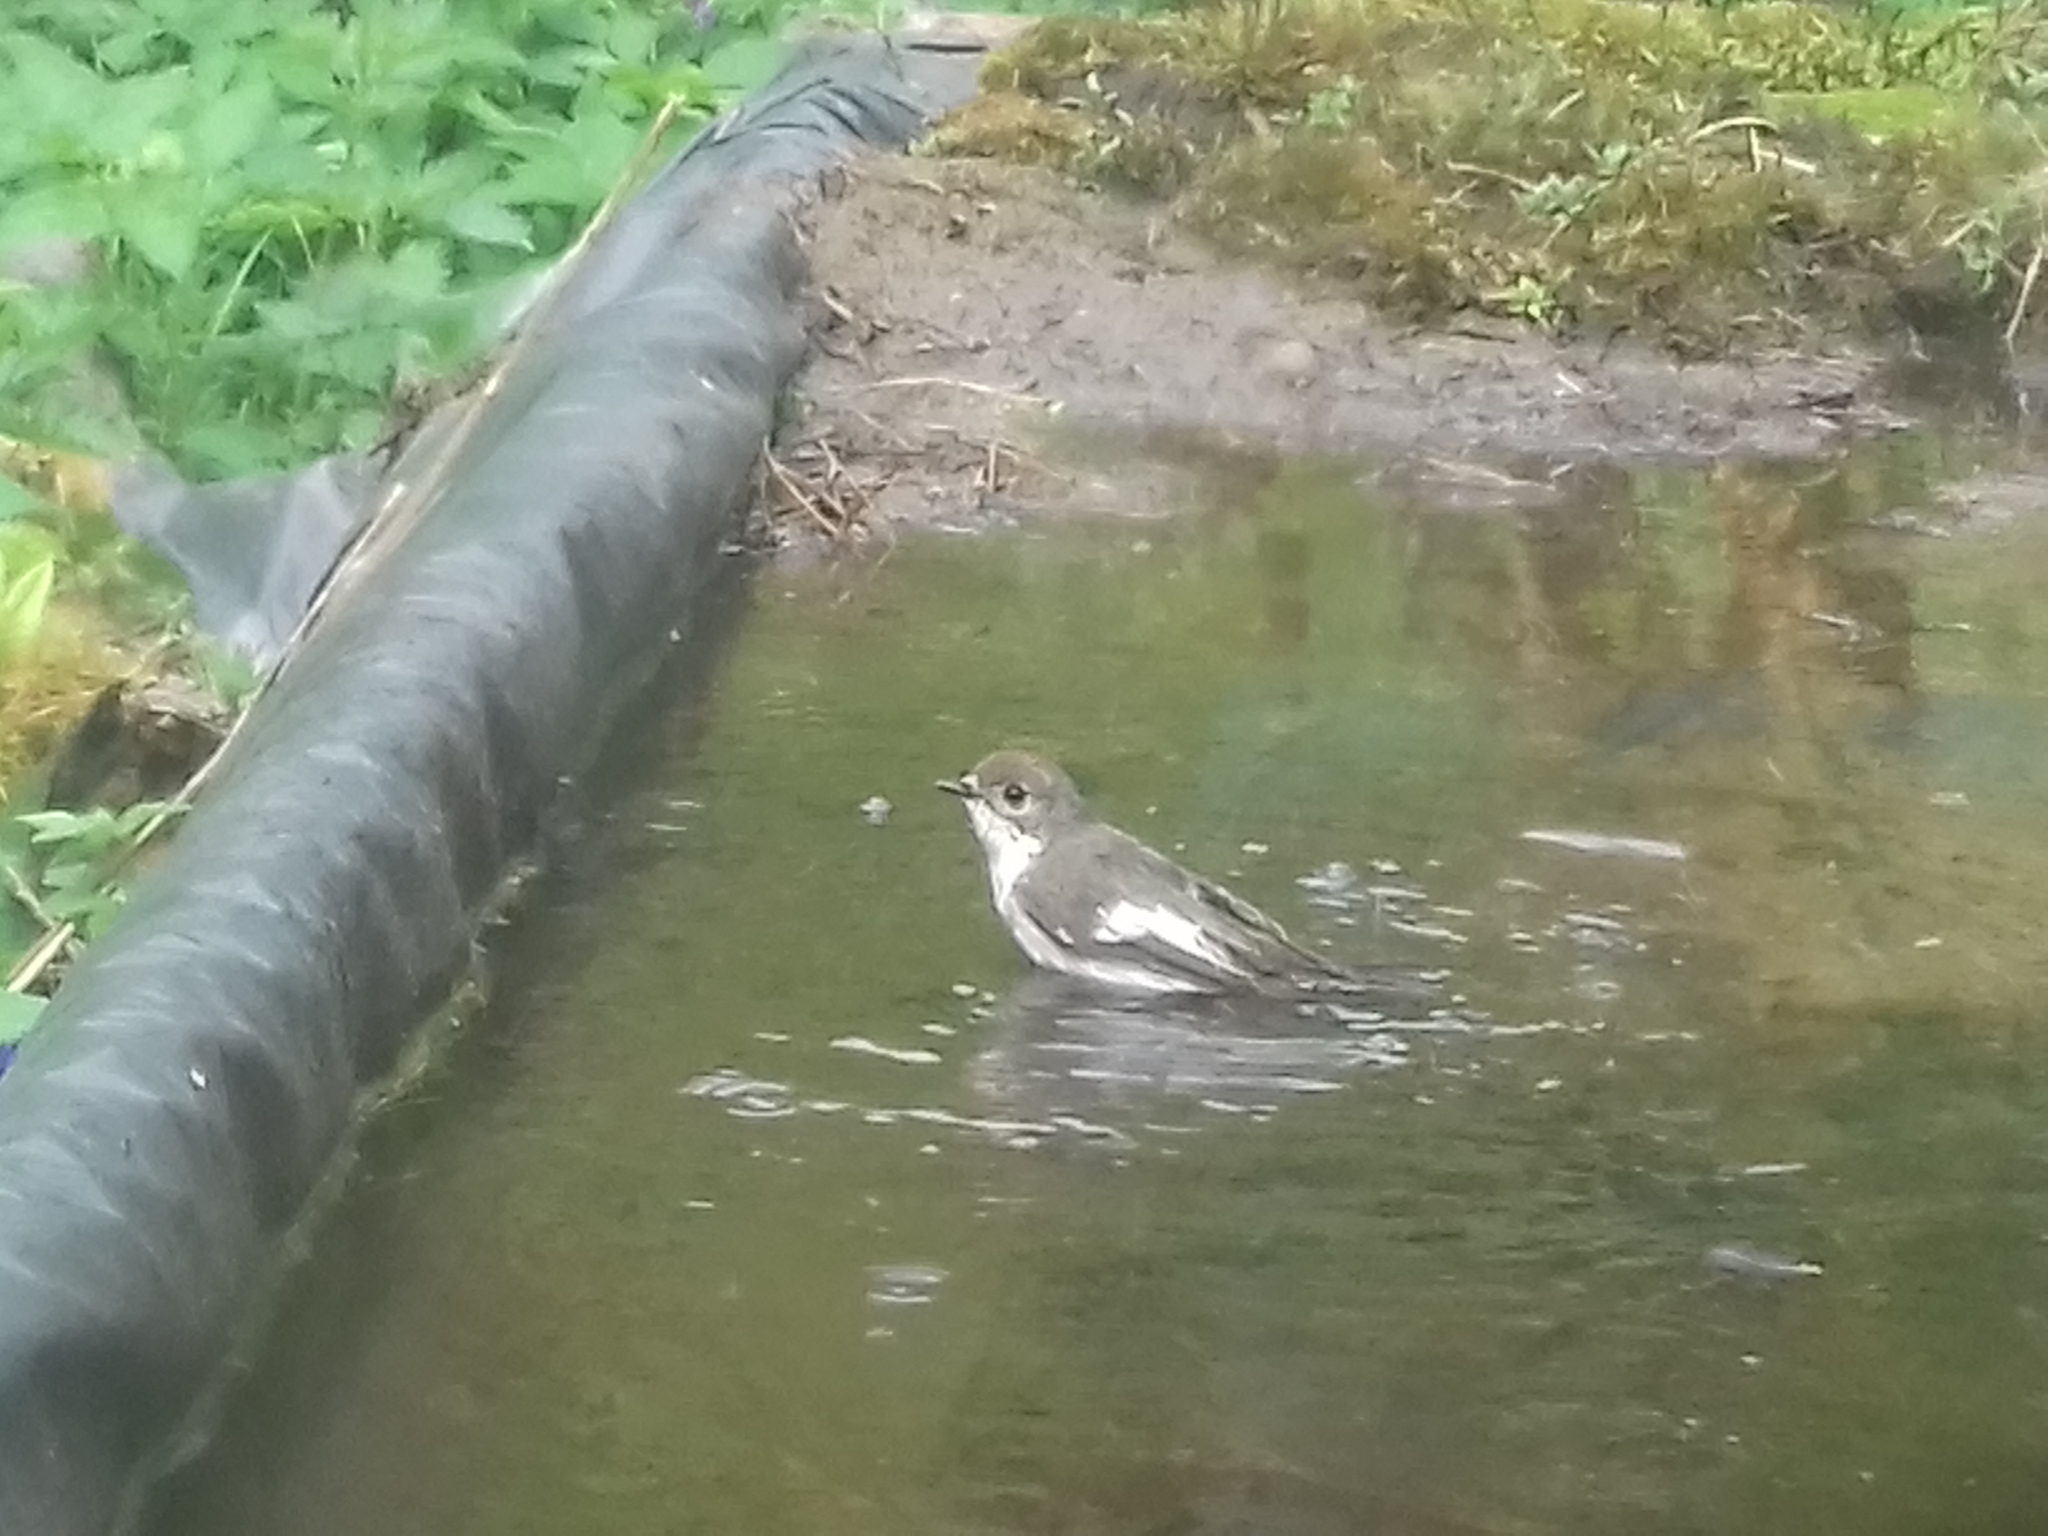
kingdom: Animalia
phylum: Chordata
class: Aves
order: Passeriformes
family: Muscicapidae
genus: Ficedula
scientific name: Ficedula hypoleuca
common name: European pied flycatcher
